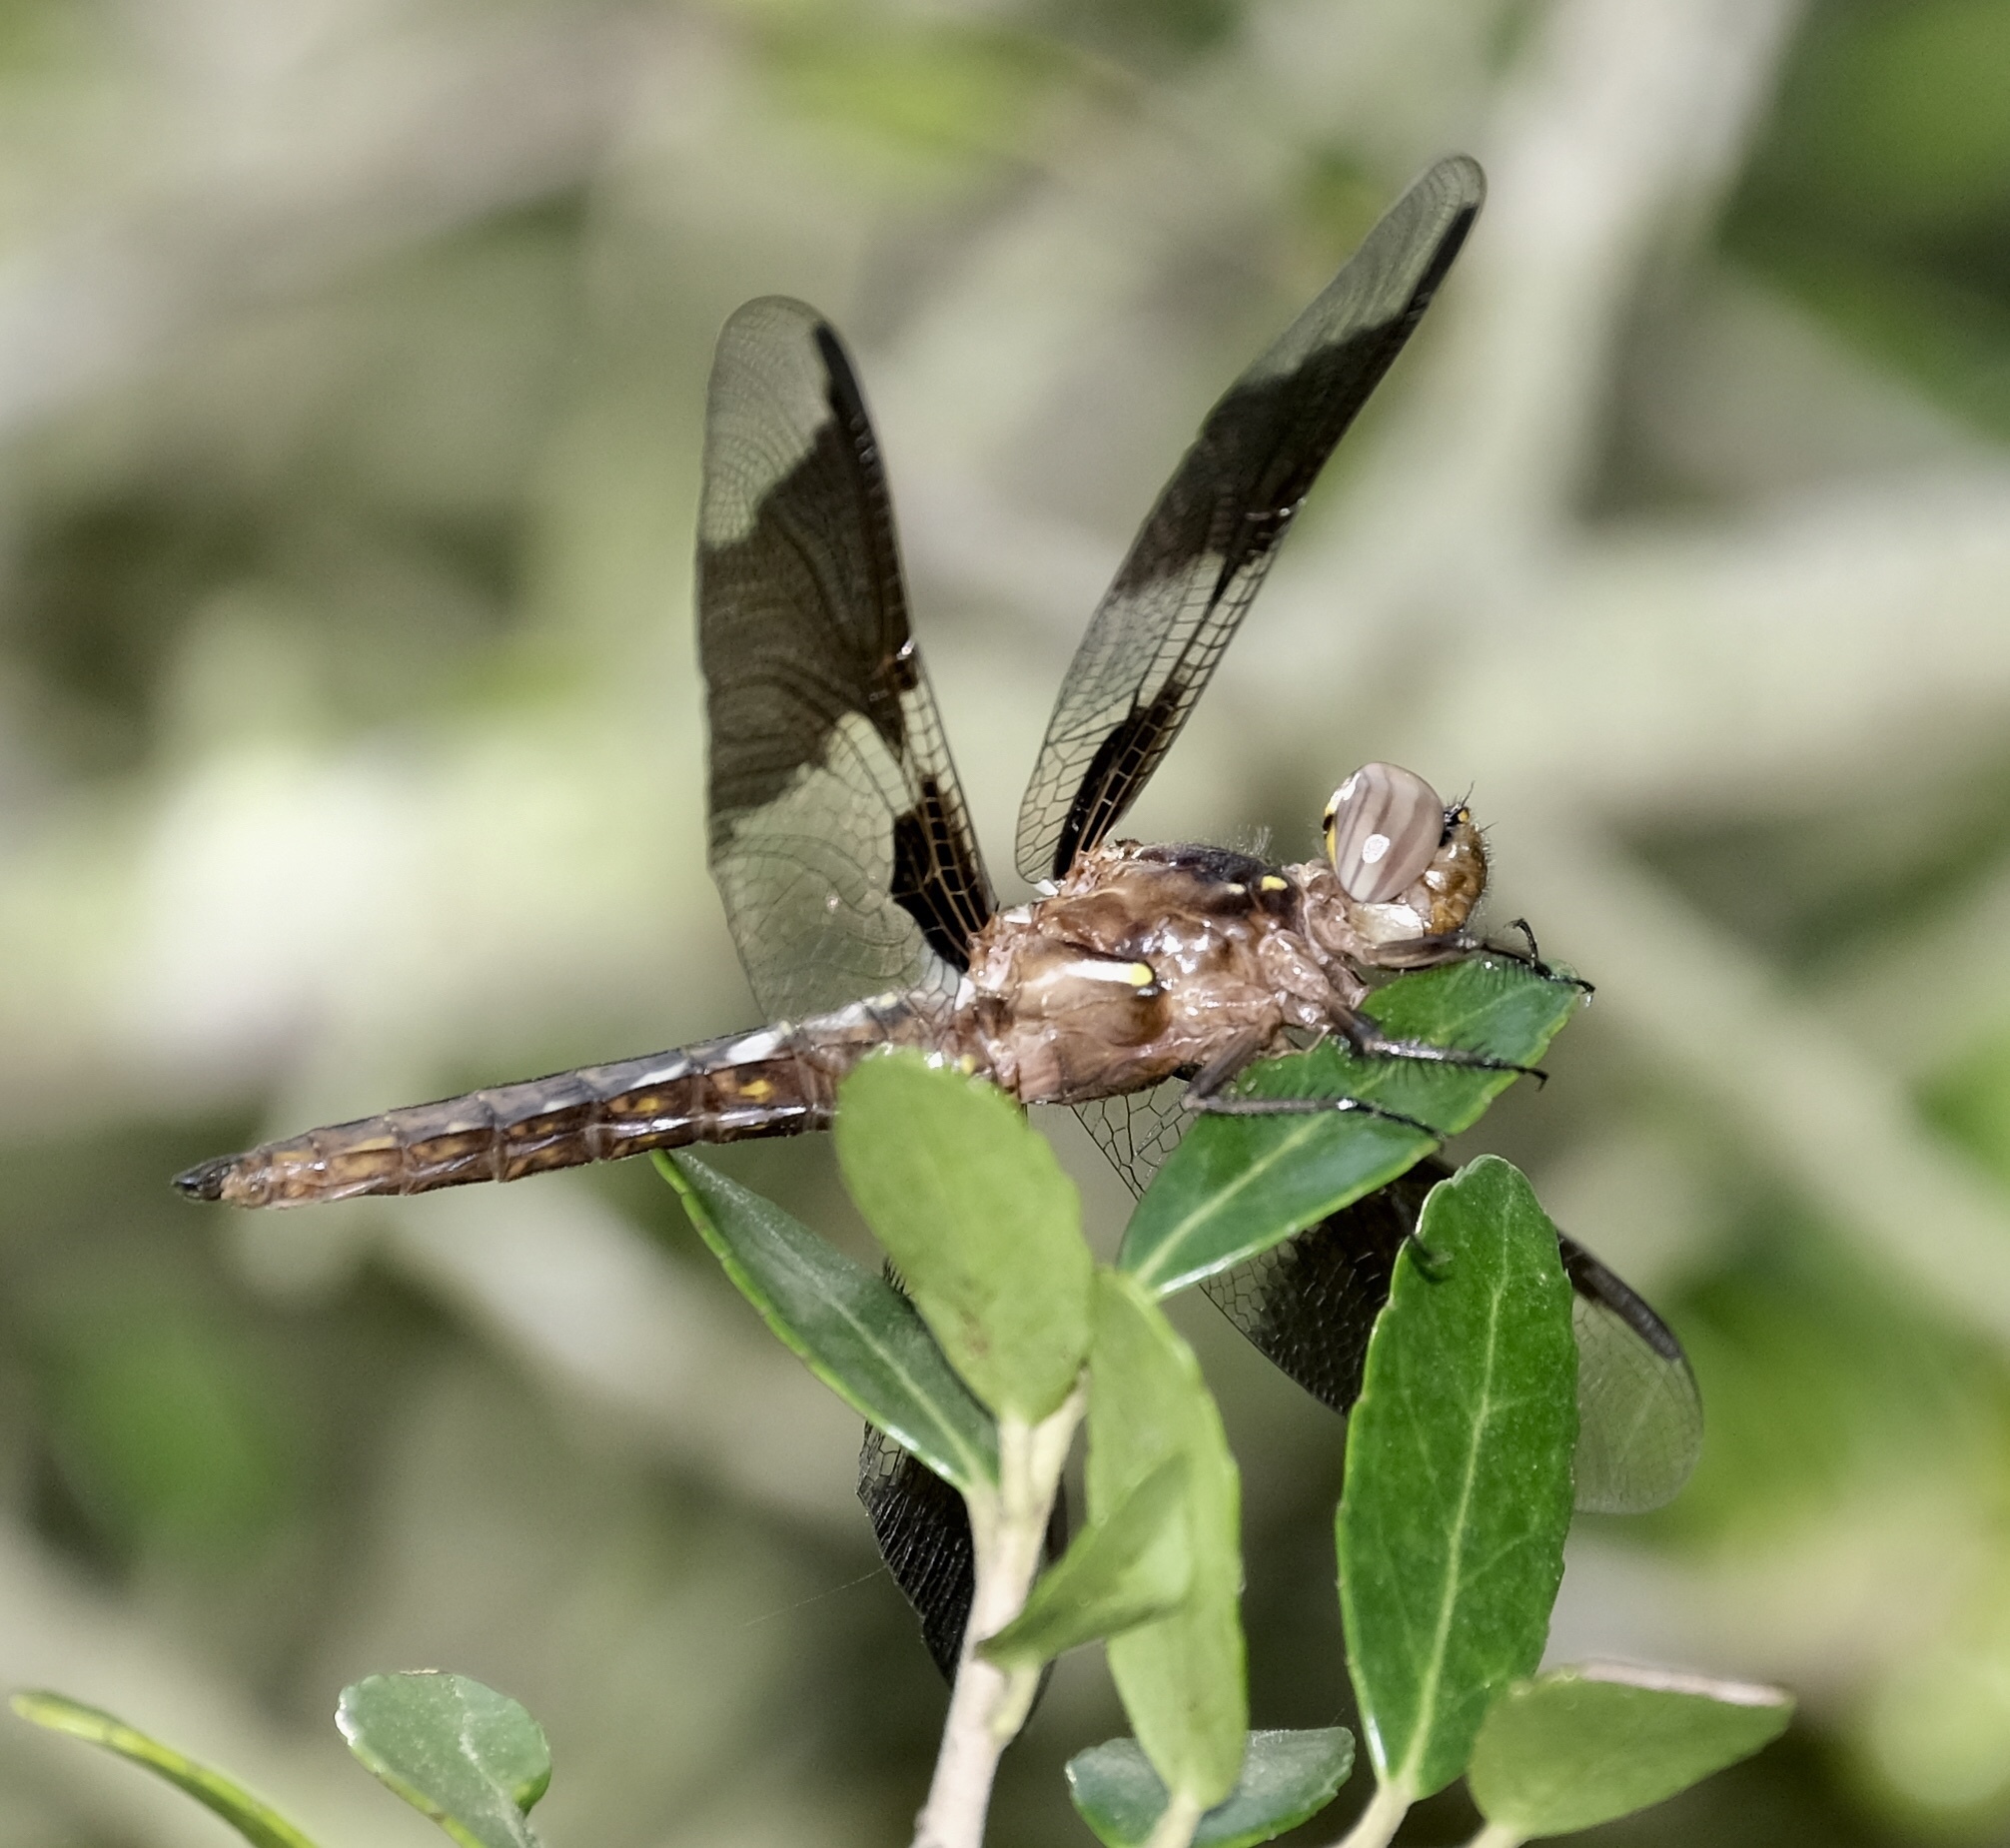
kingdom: Animalia
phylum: Arthropoda
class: Insecta
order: Odonata
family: Libellulidae
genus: Plathemis
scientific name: Plathemis lydia
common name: Common whitetail
